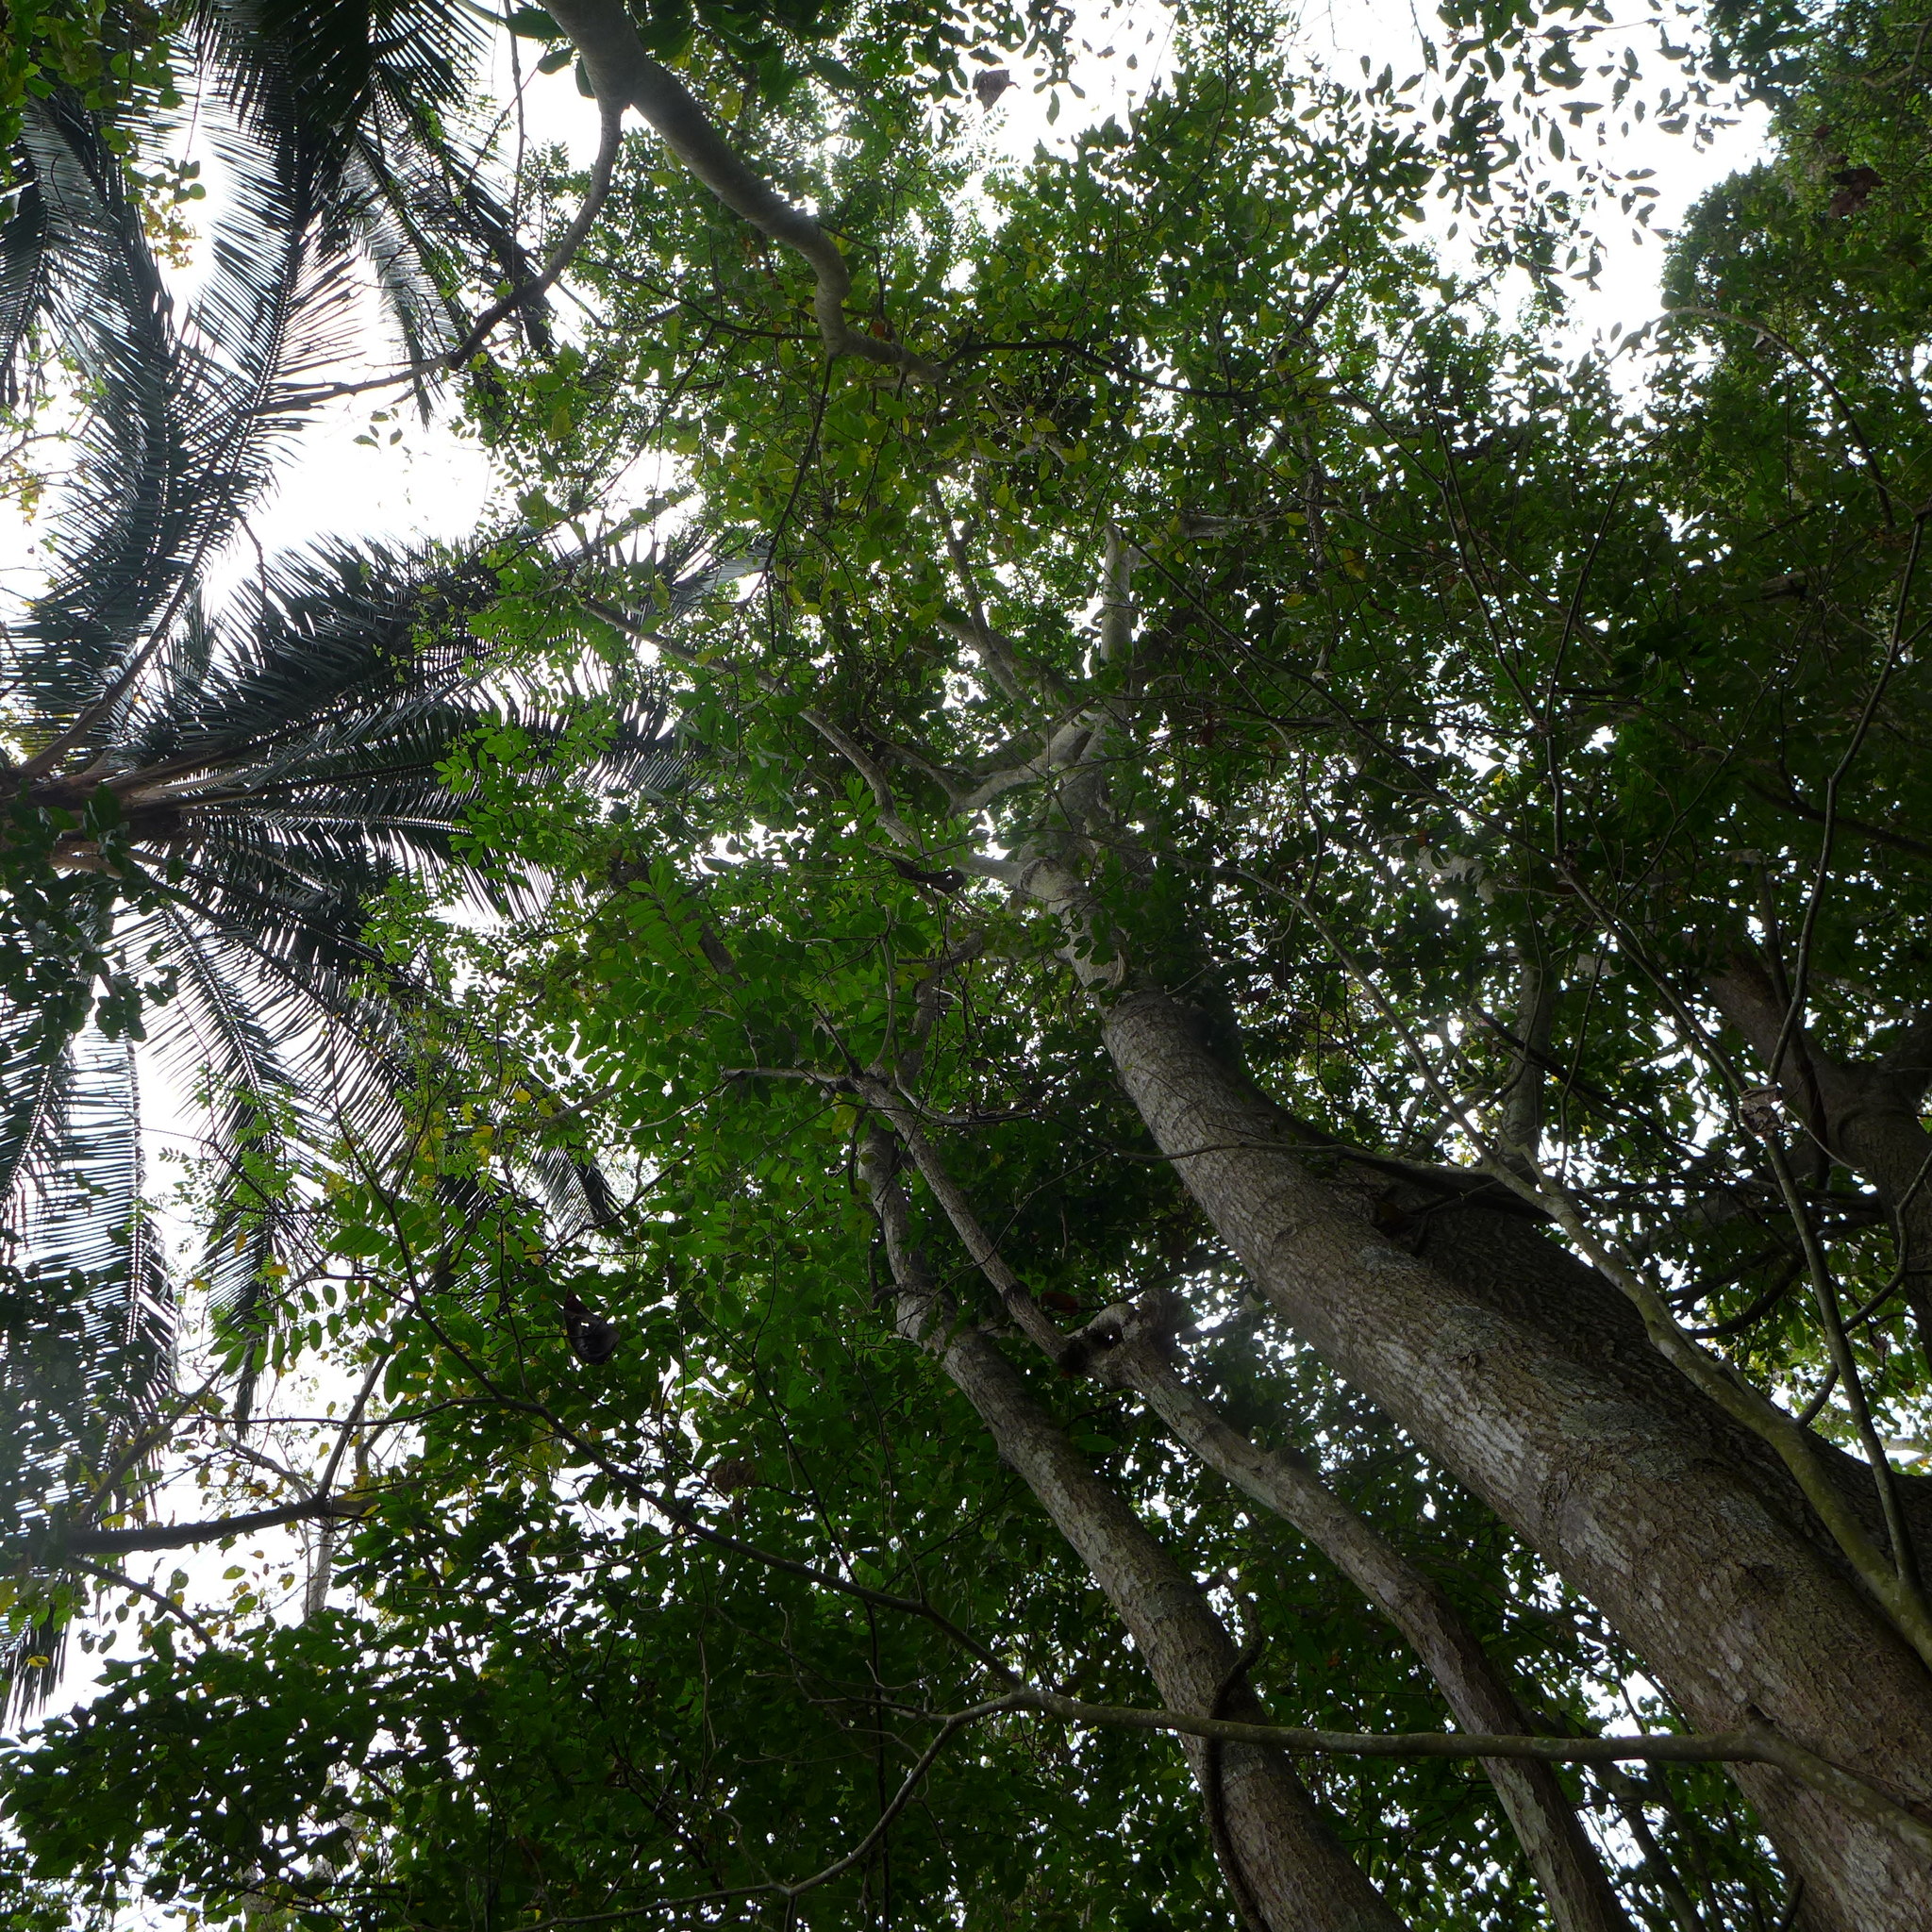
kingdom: Plantae
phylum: Tracheophyta
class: Magnoliopsida
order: Fabales
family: Fabaceae
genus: Centrolobium
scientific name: Centrolobium ochroxylum
